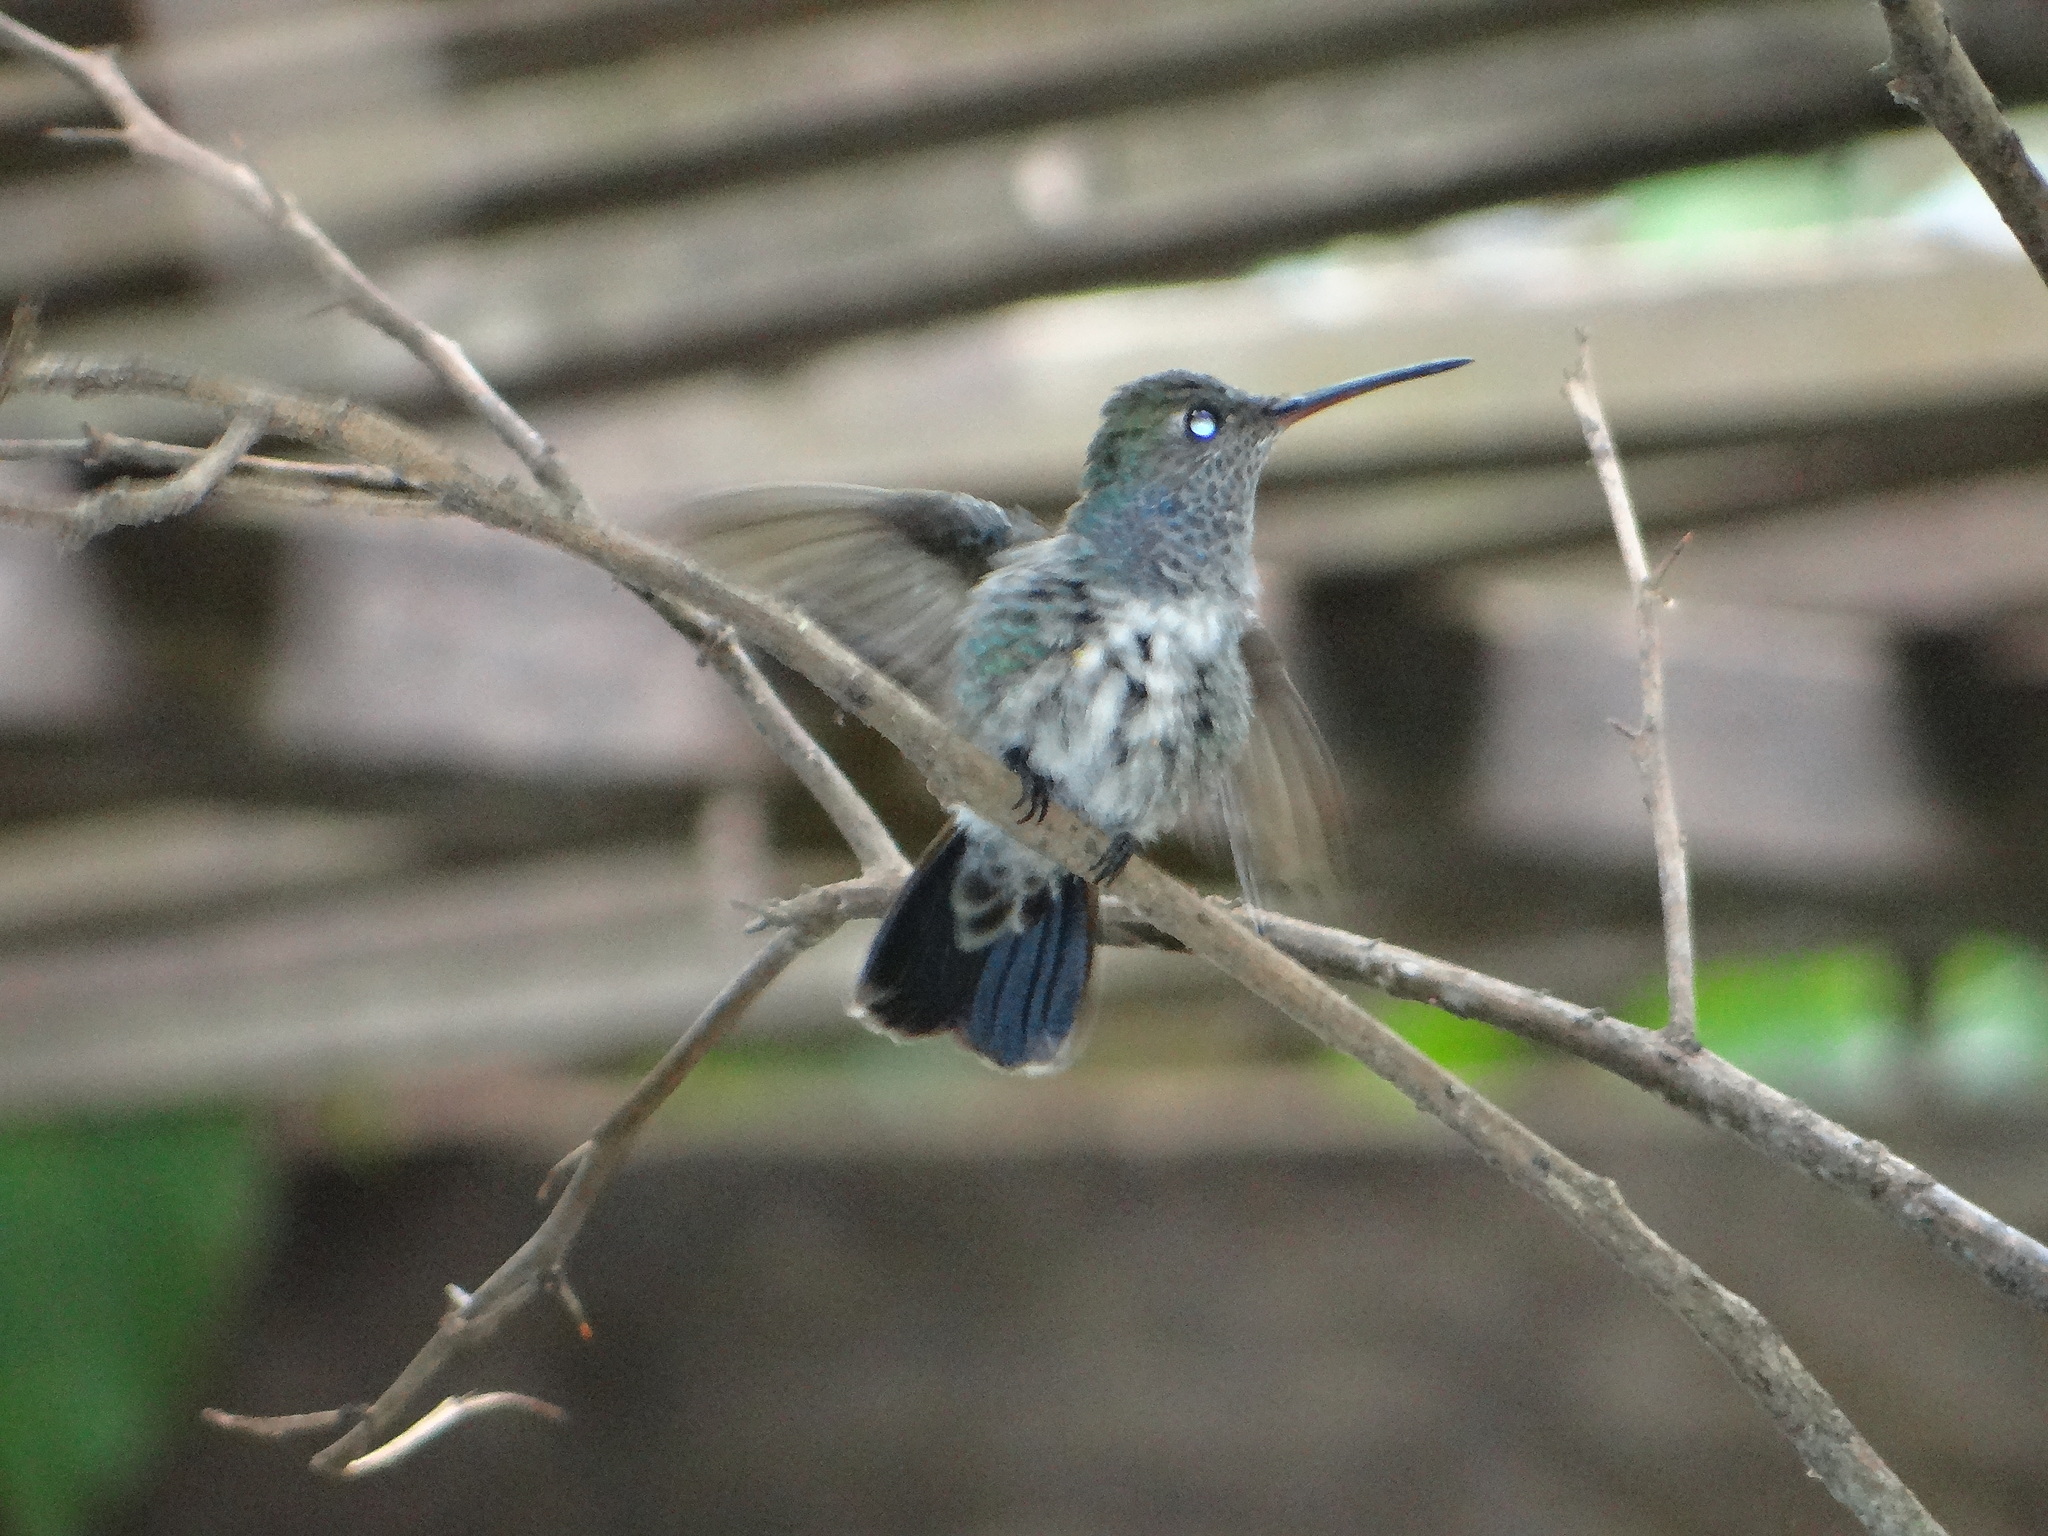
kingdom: Animalia
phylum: Chordata
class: Aves
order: Apodiformes
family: Trochilidae
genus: Chionomesa
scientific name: Chionomesa lactea
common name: Sapphire-spangled emerald
